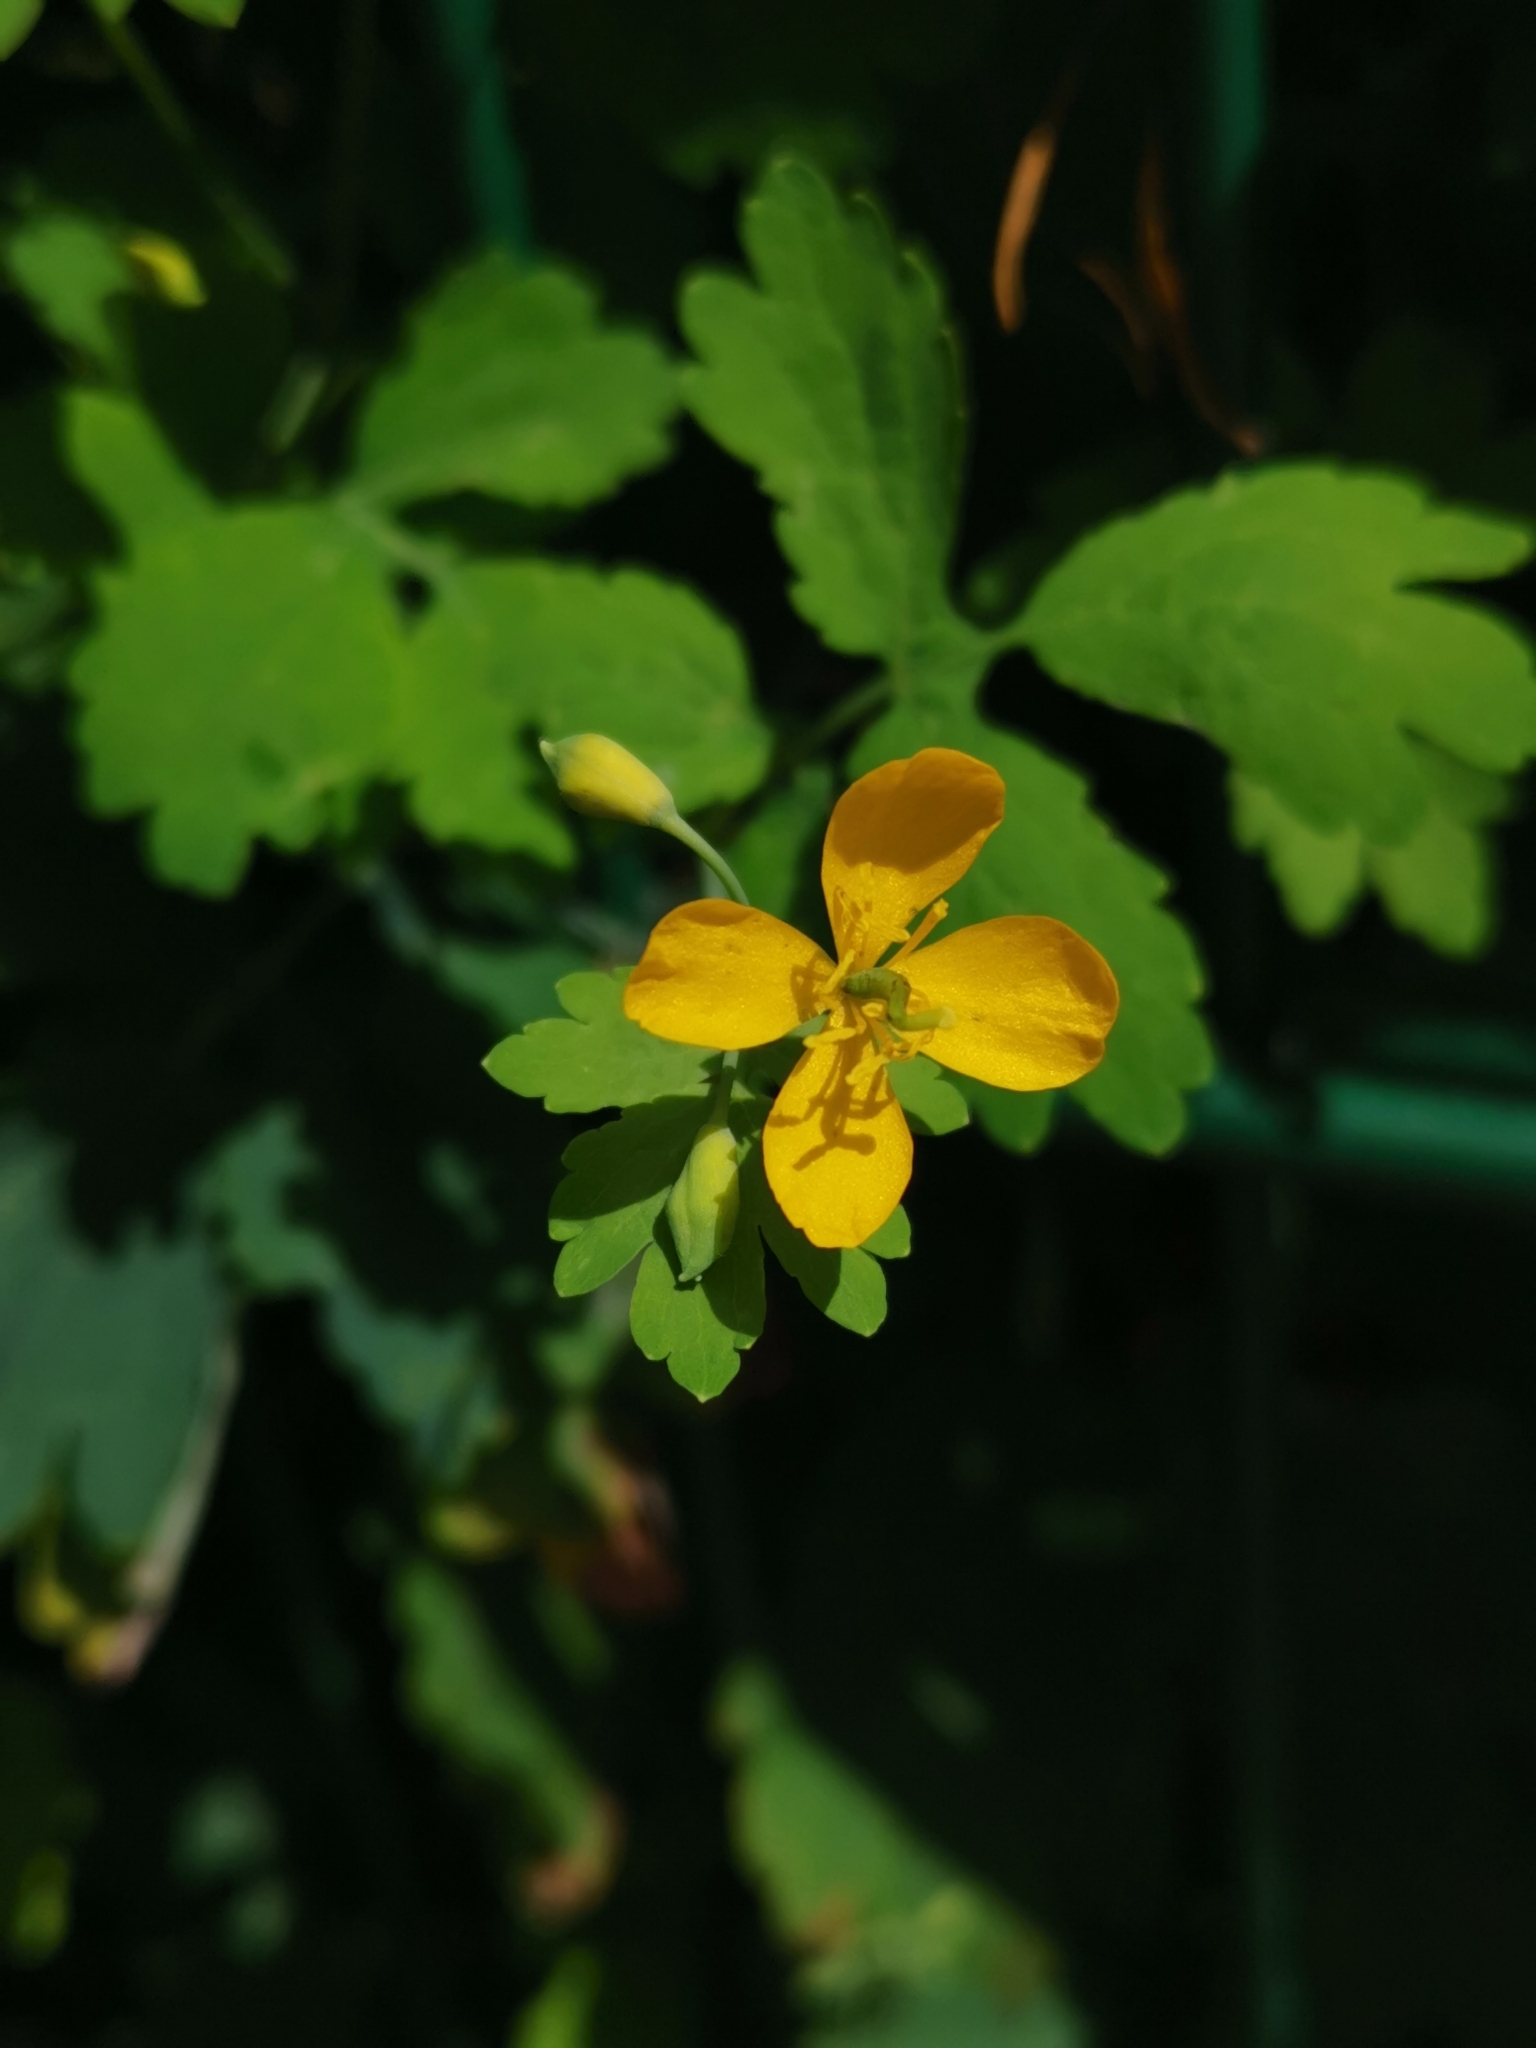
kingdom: Plantae
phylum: Tracheophyta
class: Magnoliopsida
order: Ranunculales
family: Papaveraceae
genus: Chelidonium
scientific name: Chelidonium majus
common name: Greater celandine
